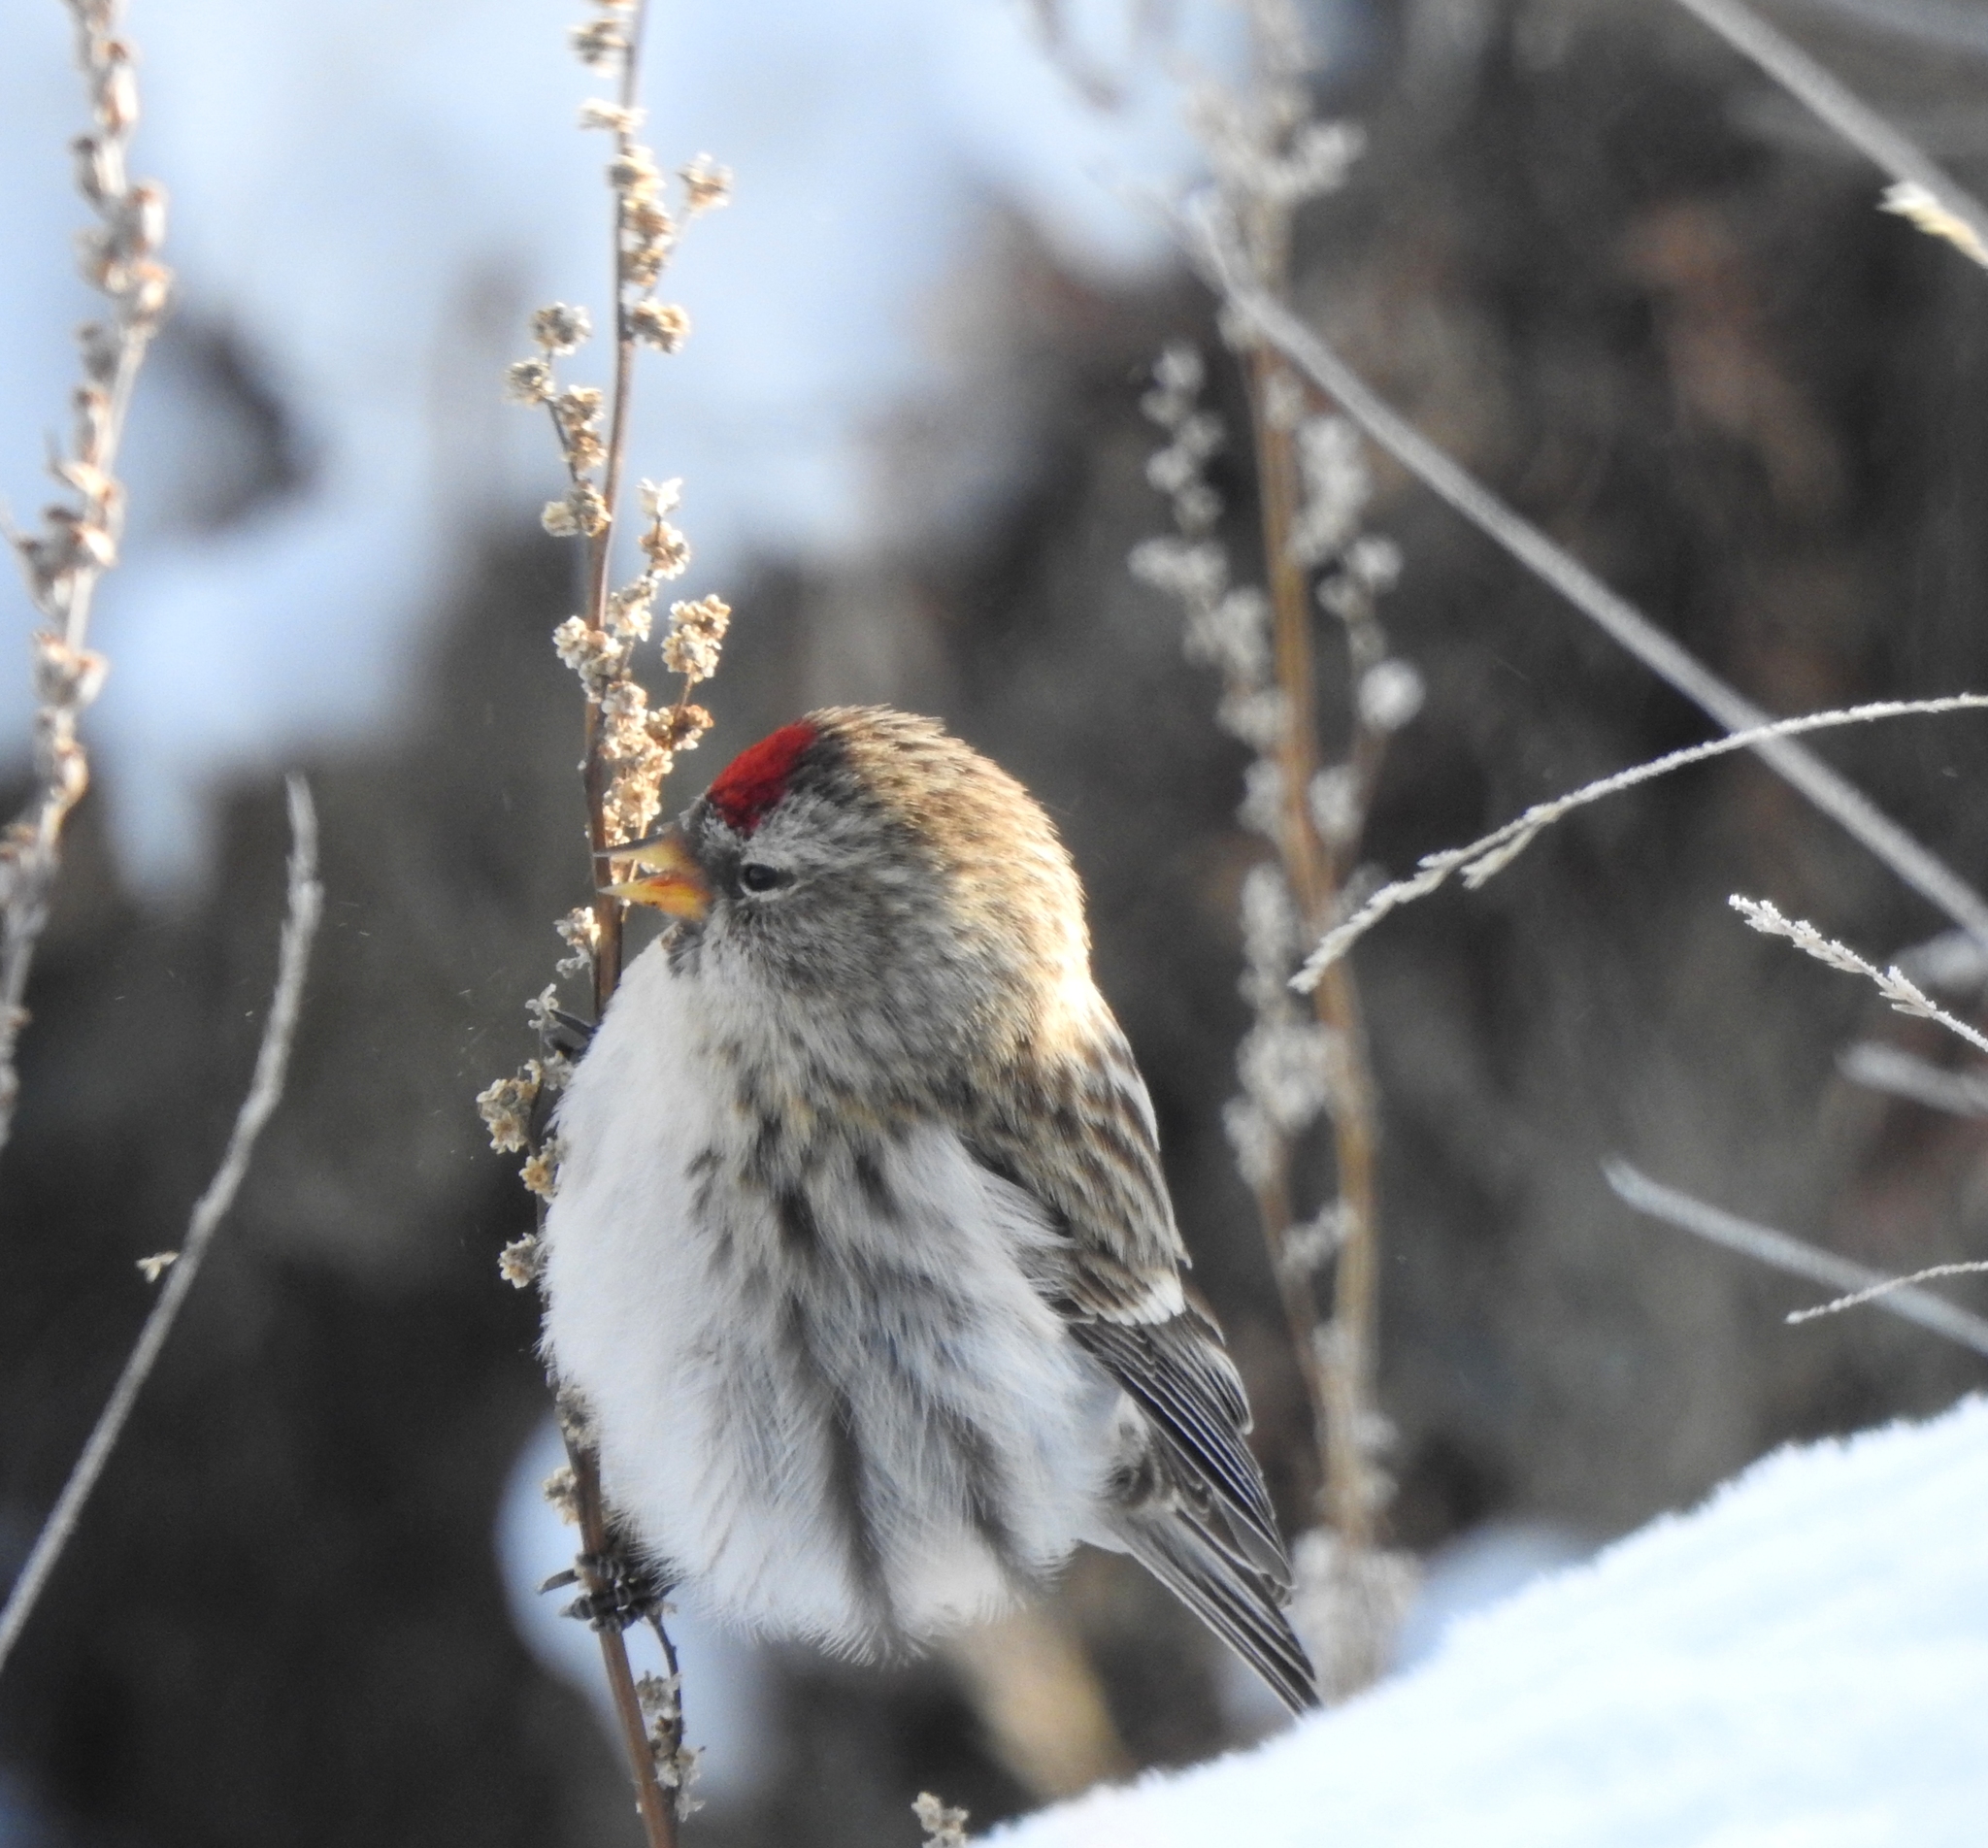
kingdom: Animalia
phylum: Chordata
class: Aves
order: Passeriformes
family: Fringillidae
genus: Acanthis
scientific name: Acanthis flammea
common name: Common redpoll
